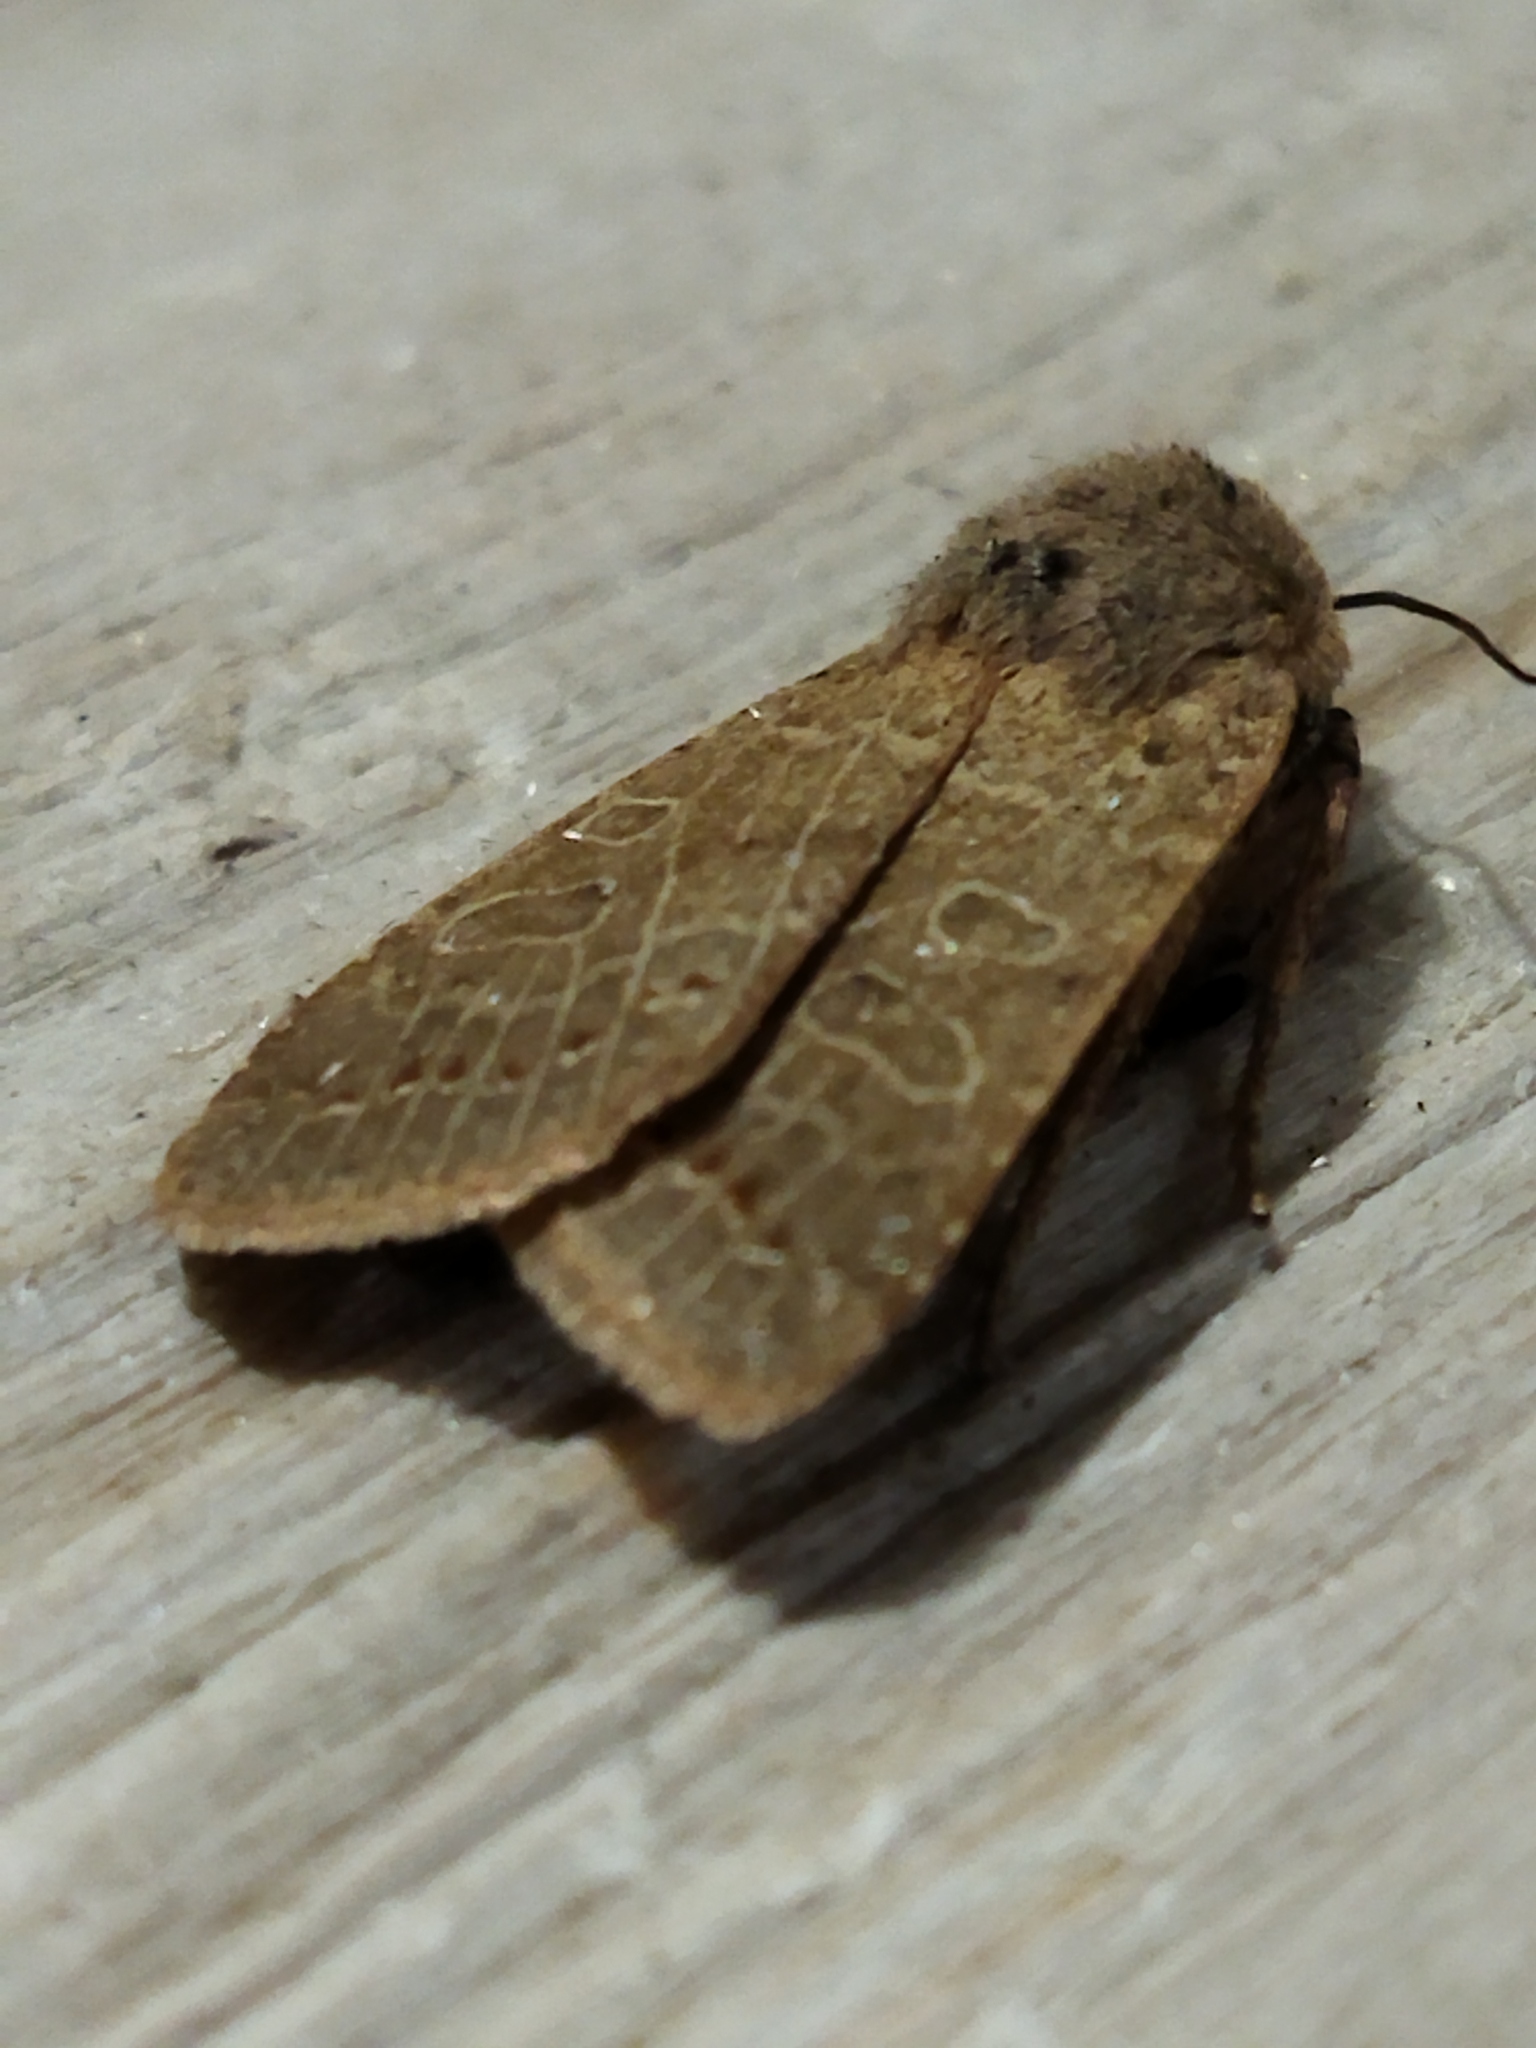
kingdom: Animalia
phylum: Arthropoda
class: Insecta
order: Lepidoptera
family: Noctuidae
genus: Agrochola
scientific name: Agrochola osthelderi
